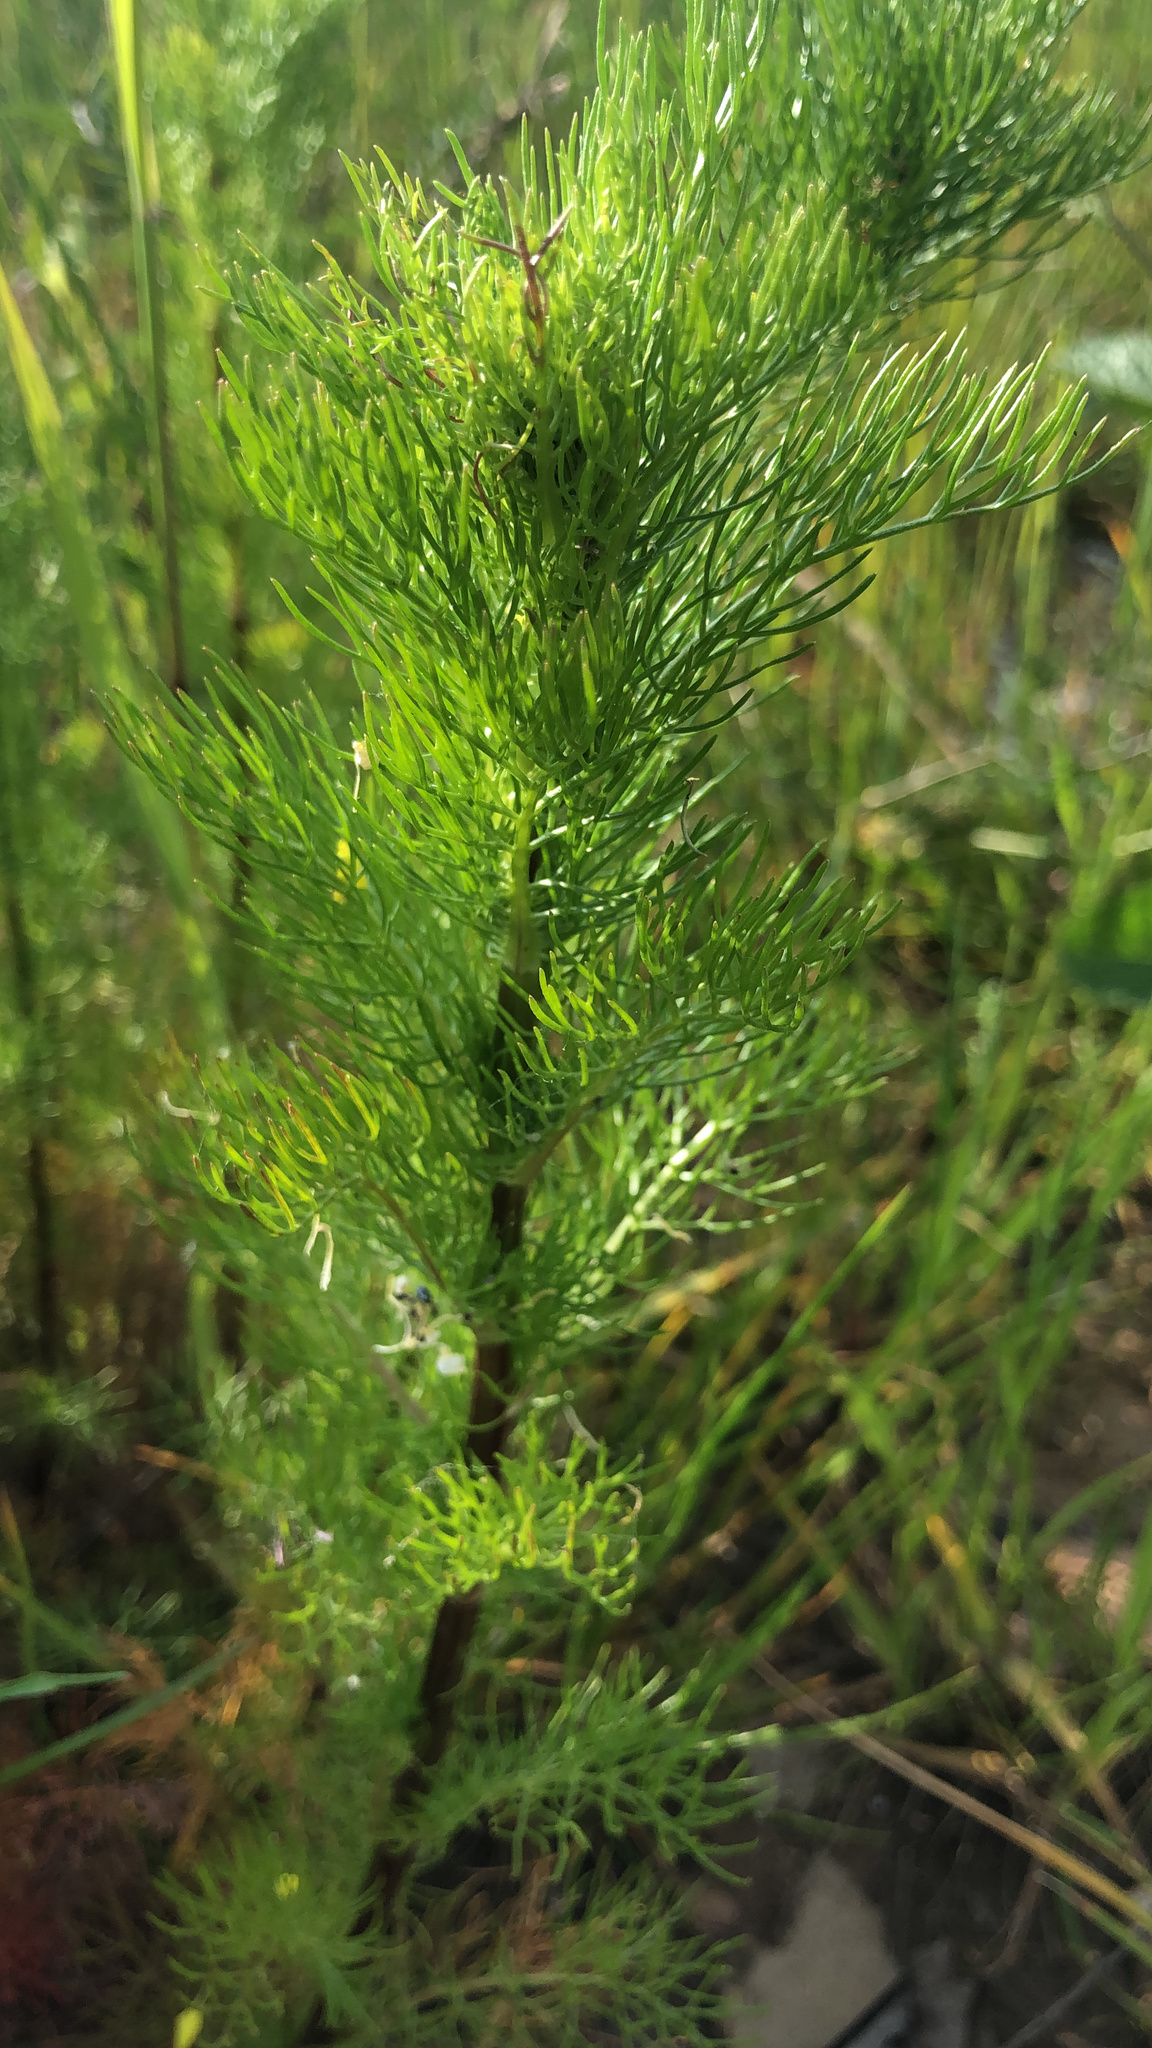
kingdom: Plantae
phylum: Tracheophyta
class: Magnoliopsida
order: Asterales
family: Asteraceae
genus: Tripleurospermum
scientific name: Tripleurospermum inodorum
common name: Scentless mayweed
